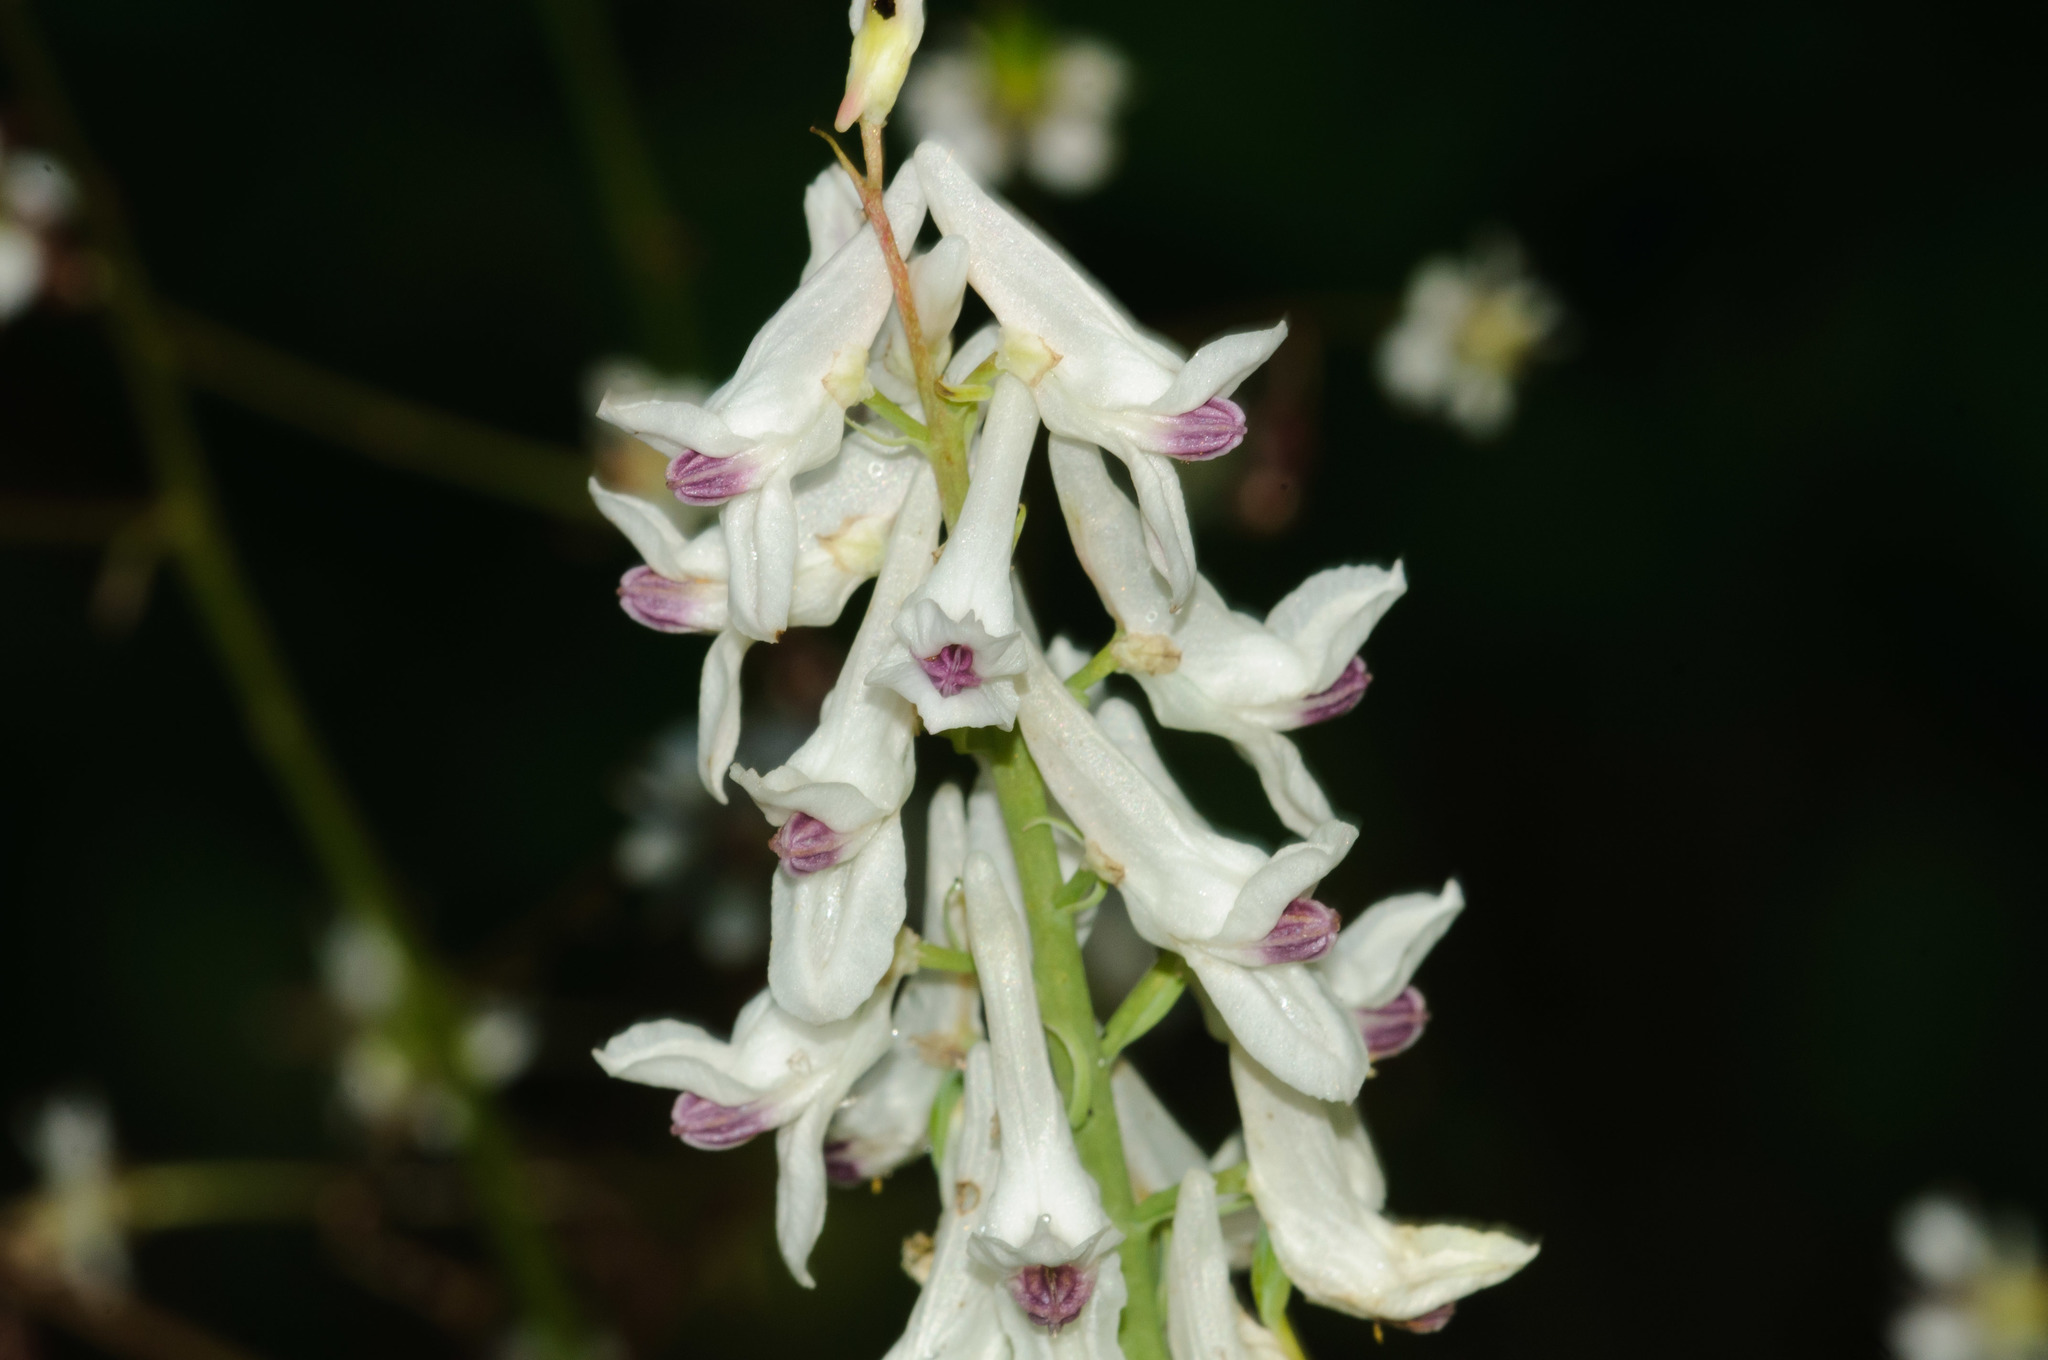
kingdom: Plantae
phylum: Tracheophyta
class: Magnoliopsida
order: Ranunculales
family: Papaveraceae
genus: Corydalis
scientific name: Corydalis caseana
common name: Fitweed
